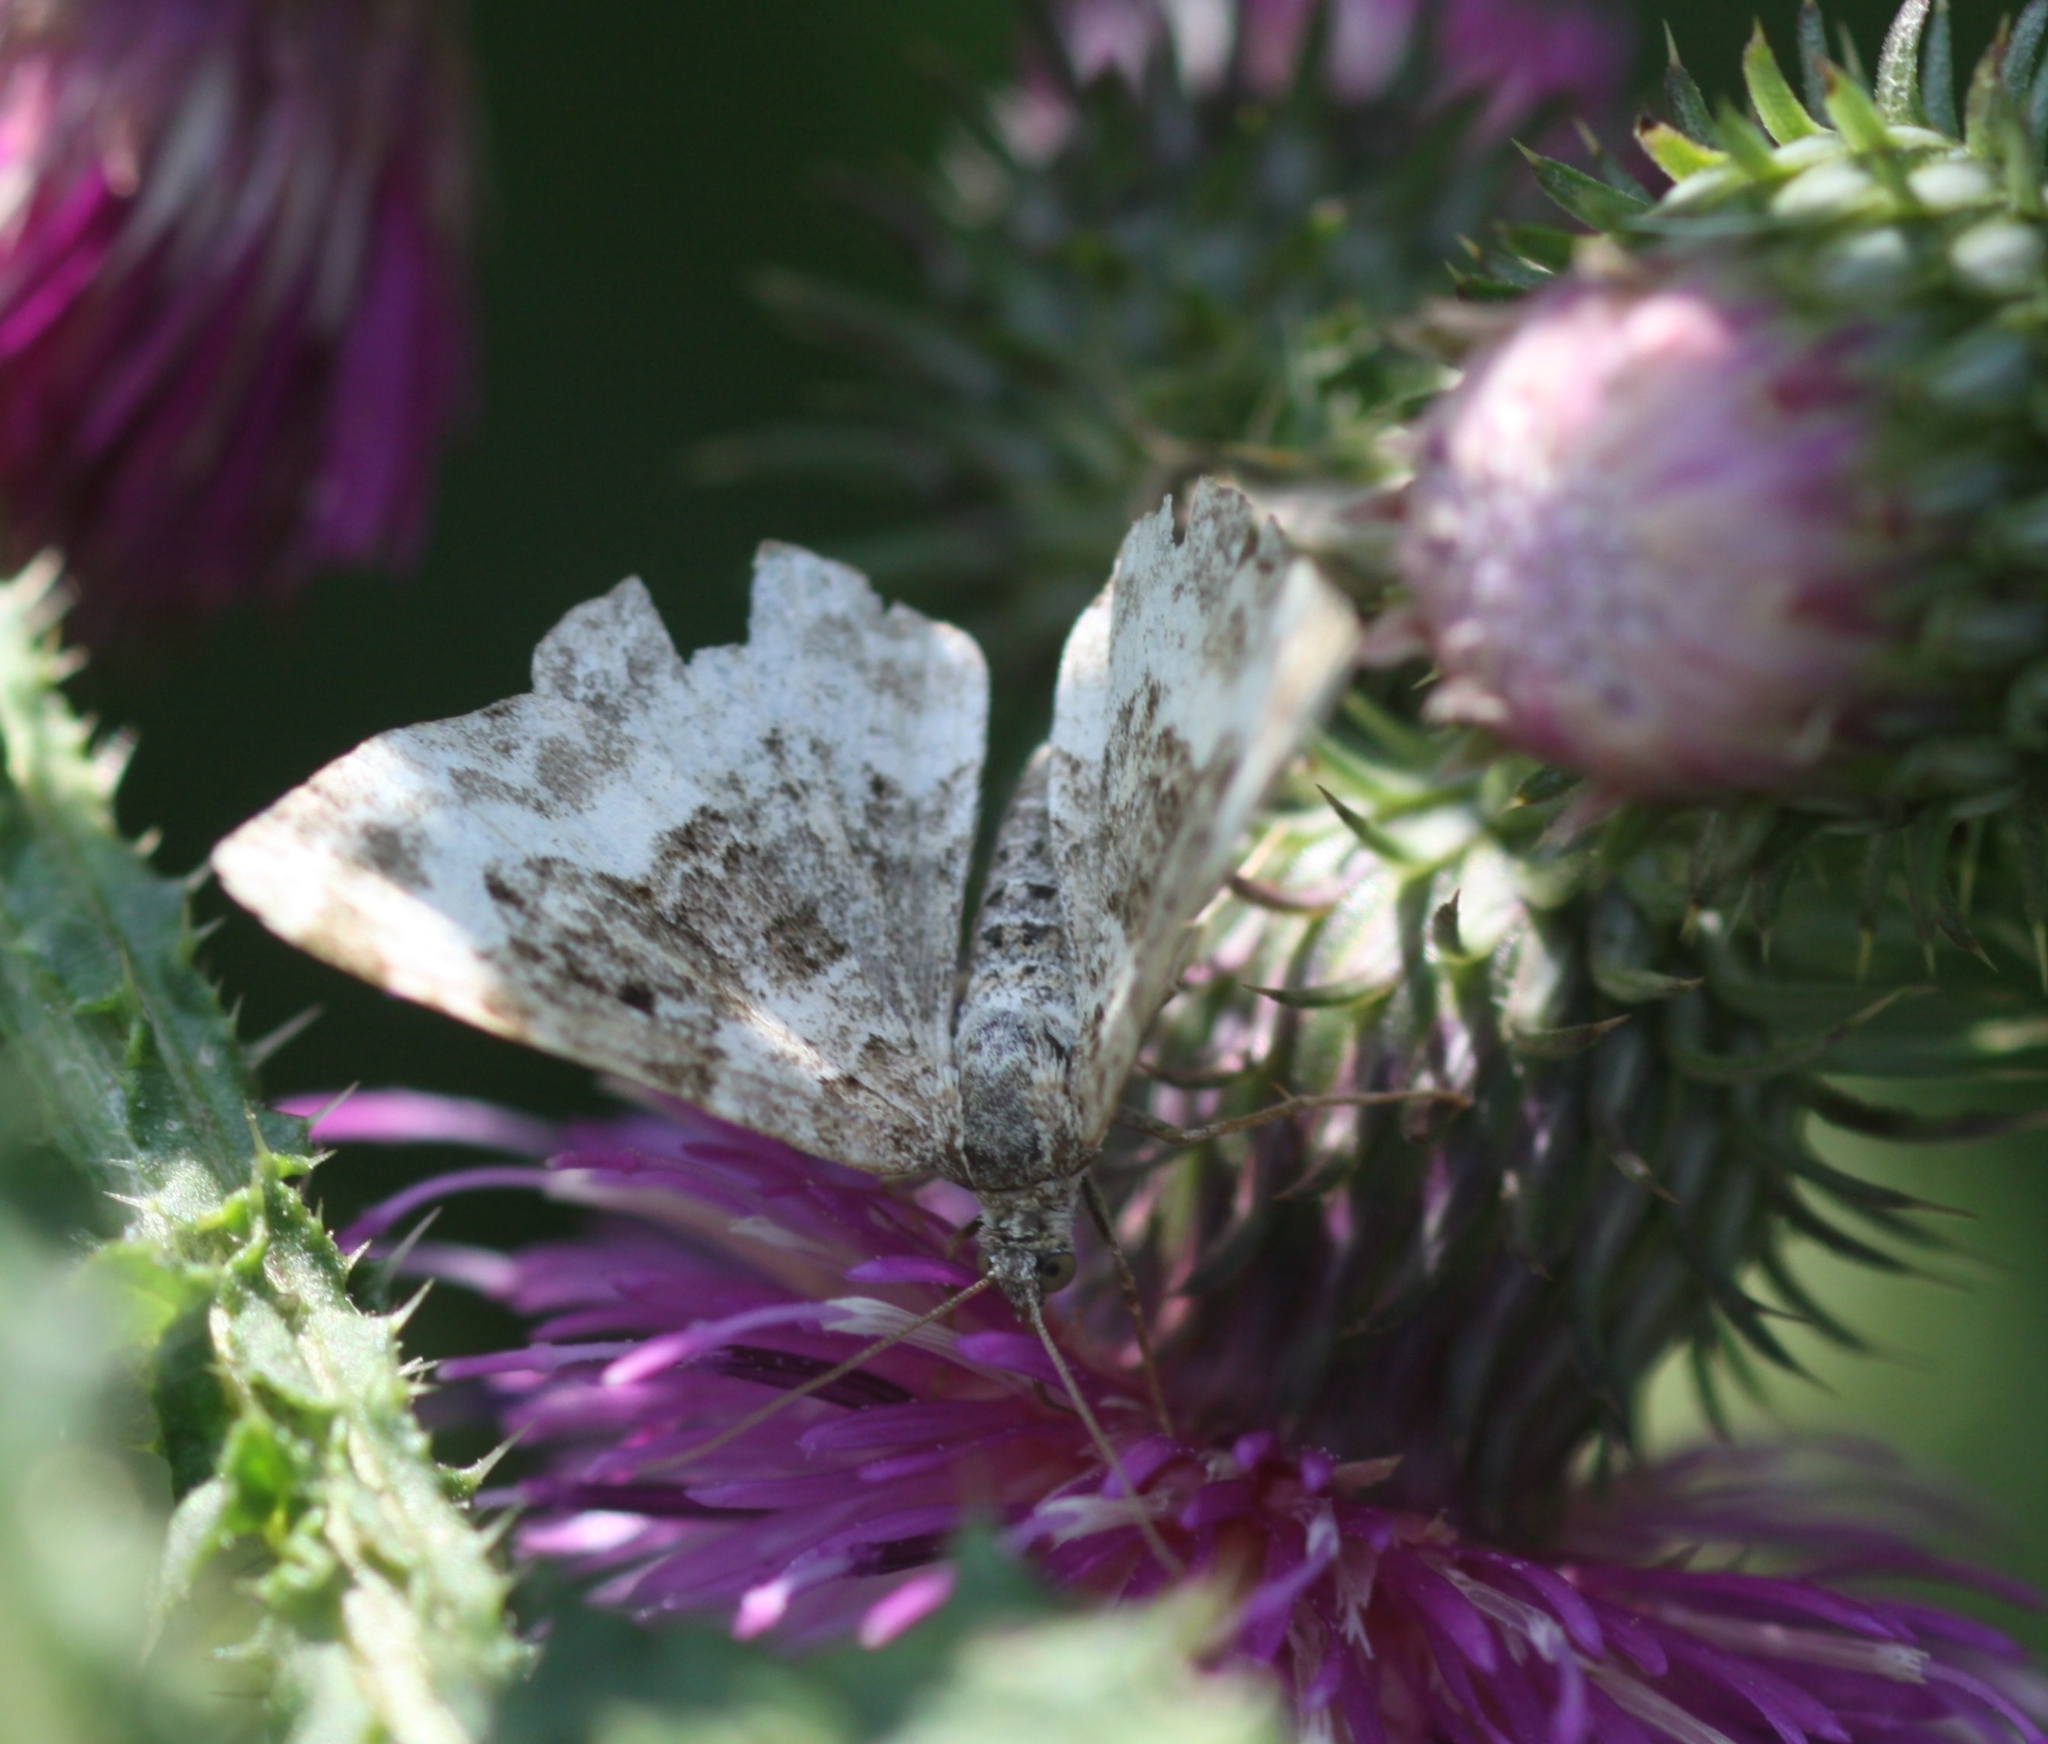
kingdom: Animalia
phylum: Arthropoda
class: Insecta
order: Lepidoptera
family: Geometridae
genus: Epirrhoe
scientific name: Epirrhoe alternata
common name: Common carpet
